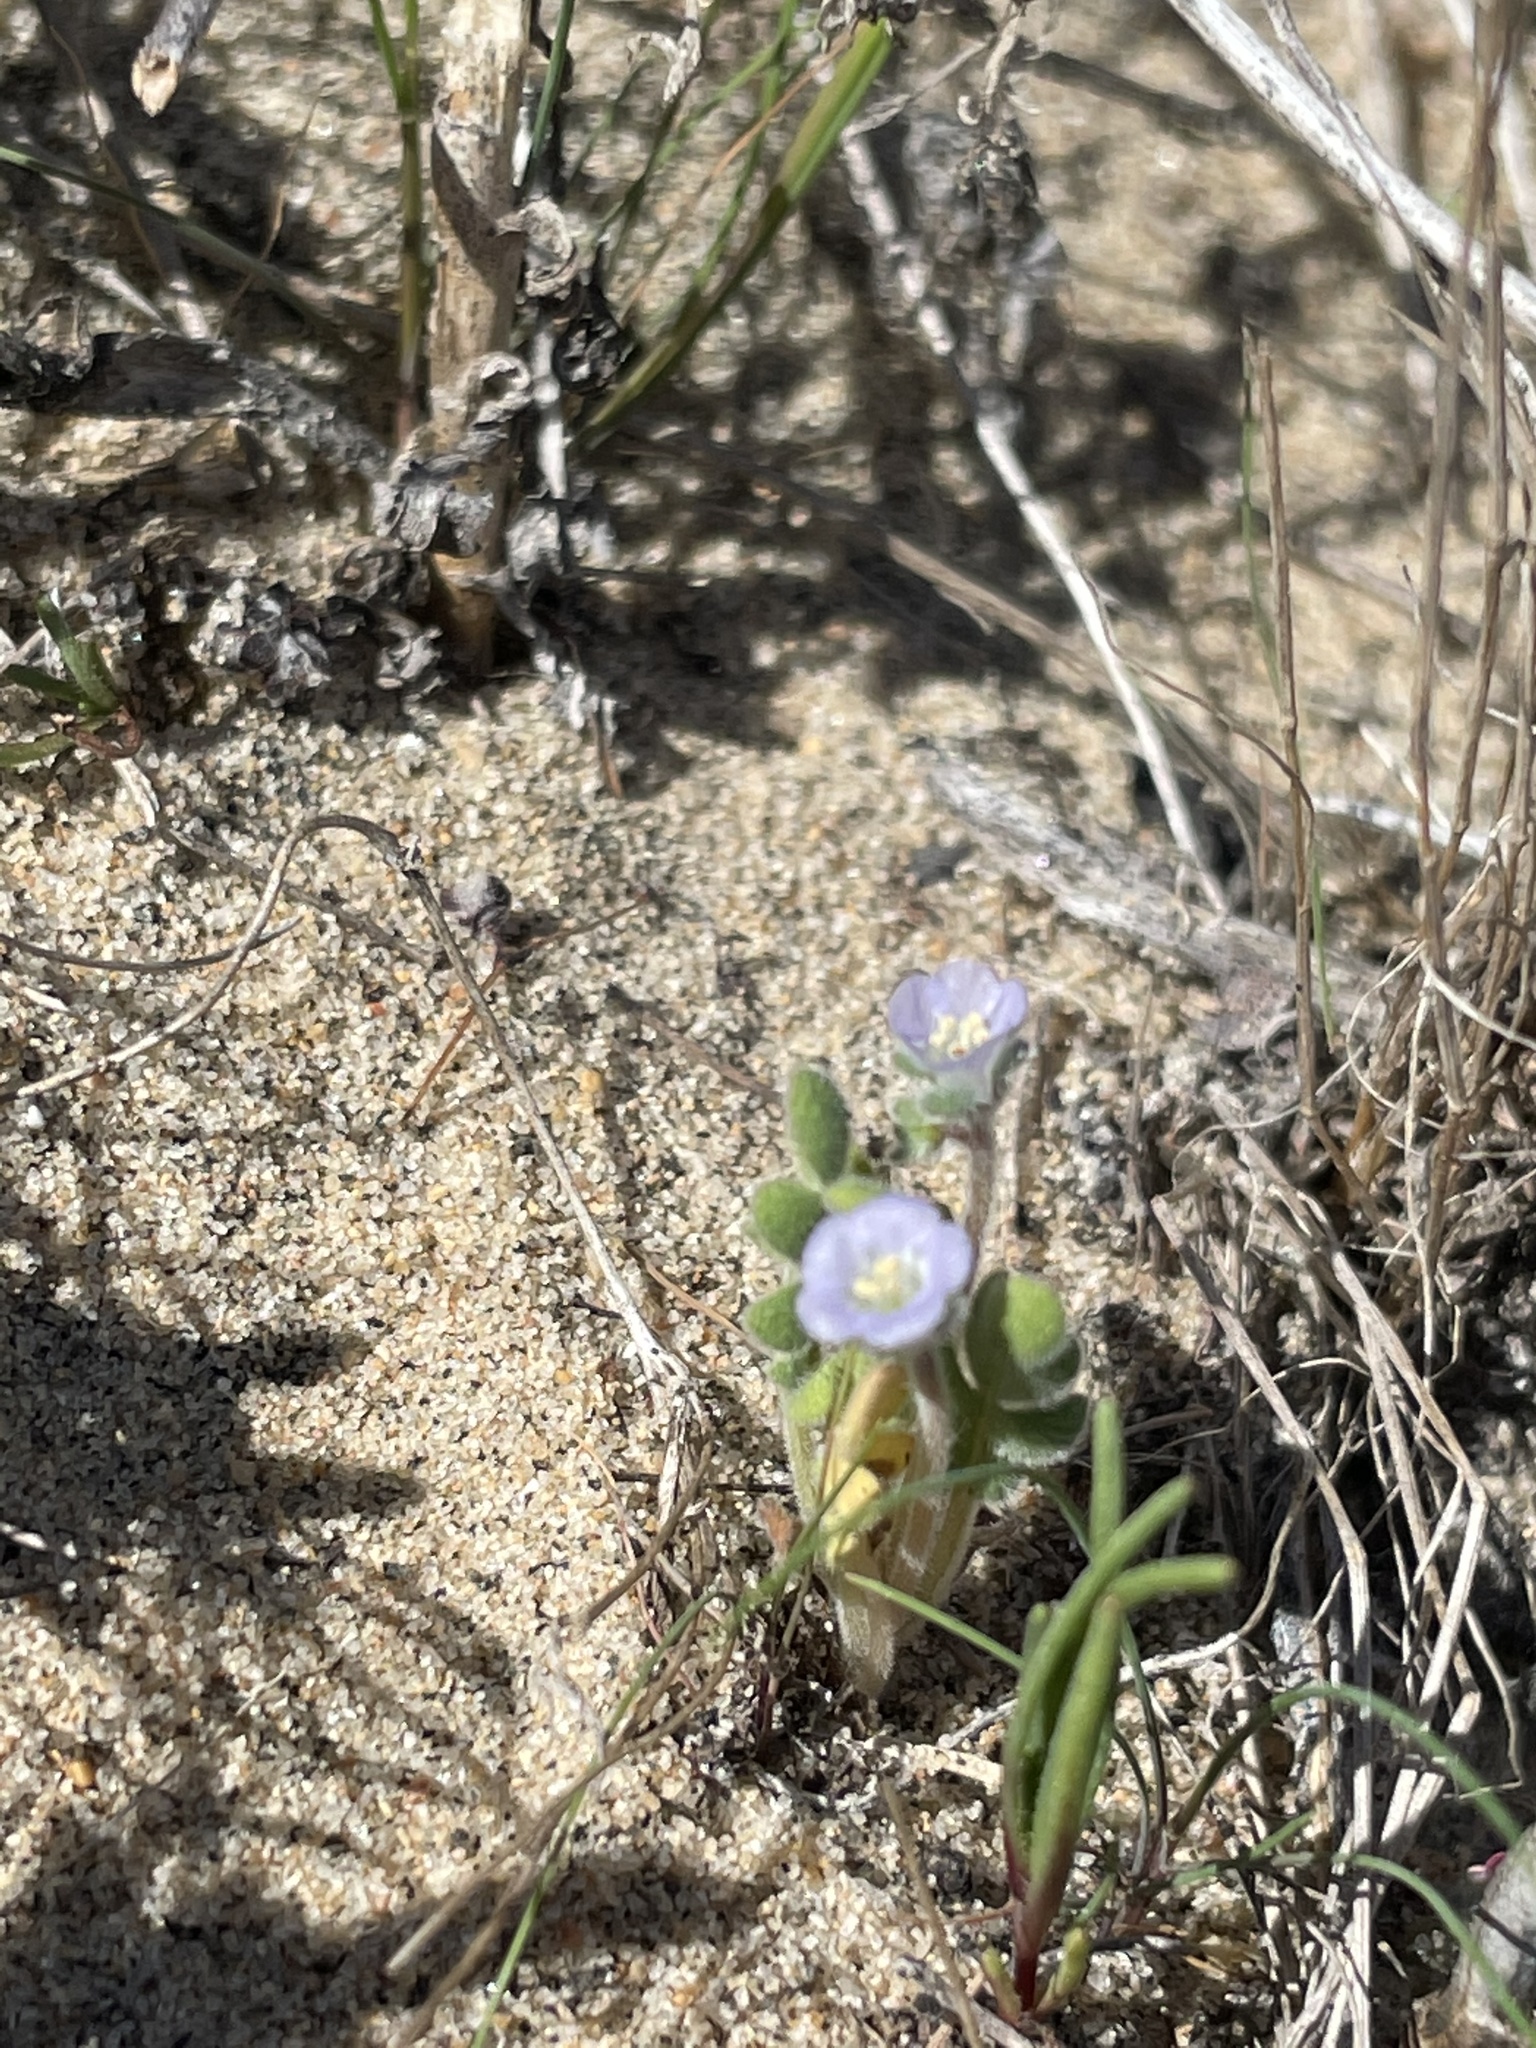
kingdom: Plantae
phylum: Tracheophyta
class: Magnoliopsida
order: Boraginales
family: Hydrophyllaceae
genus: Phacelia
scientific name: Phacelia stellaris
